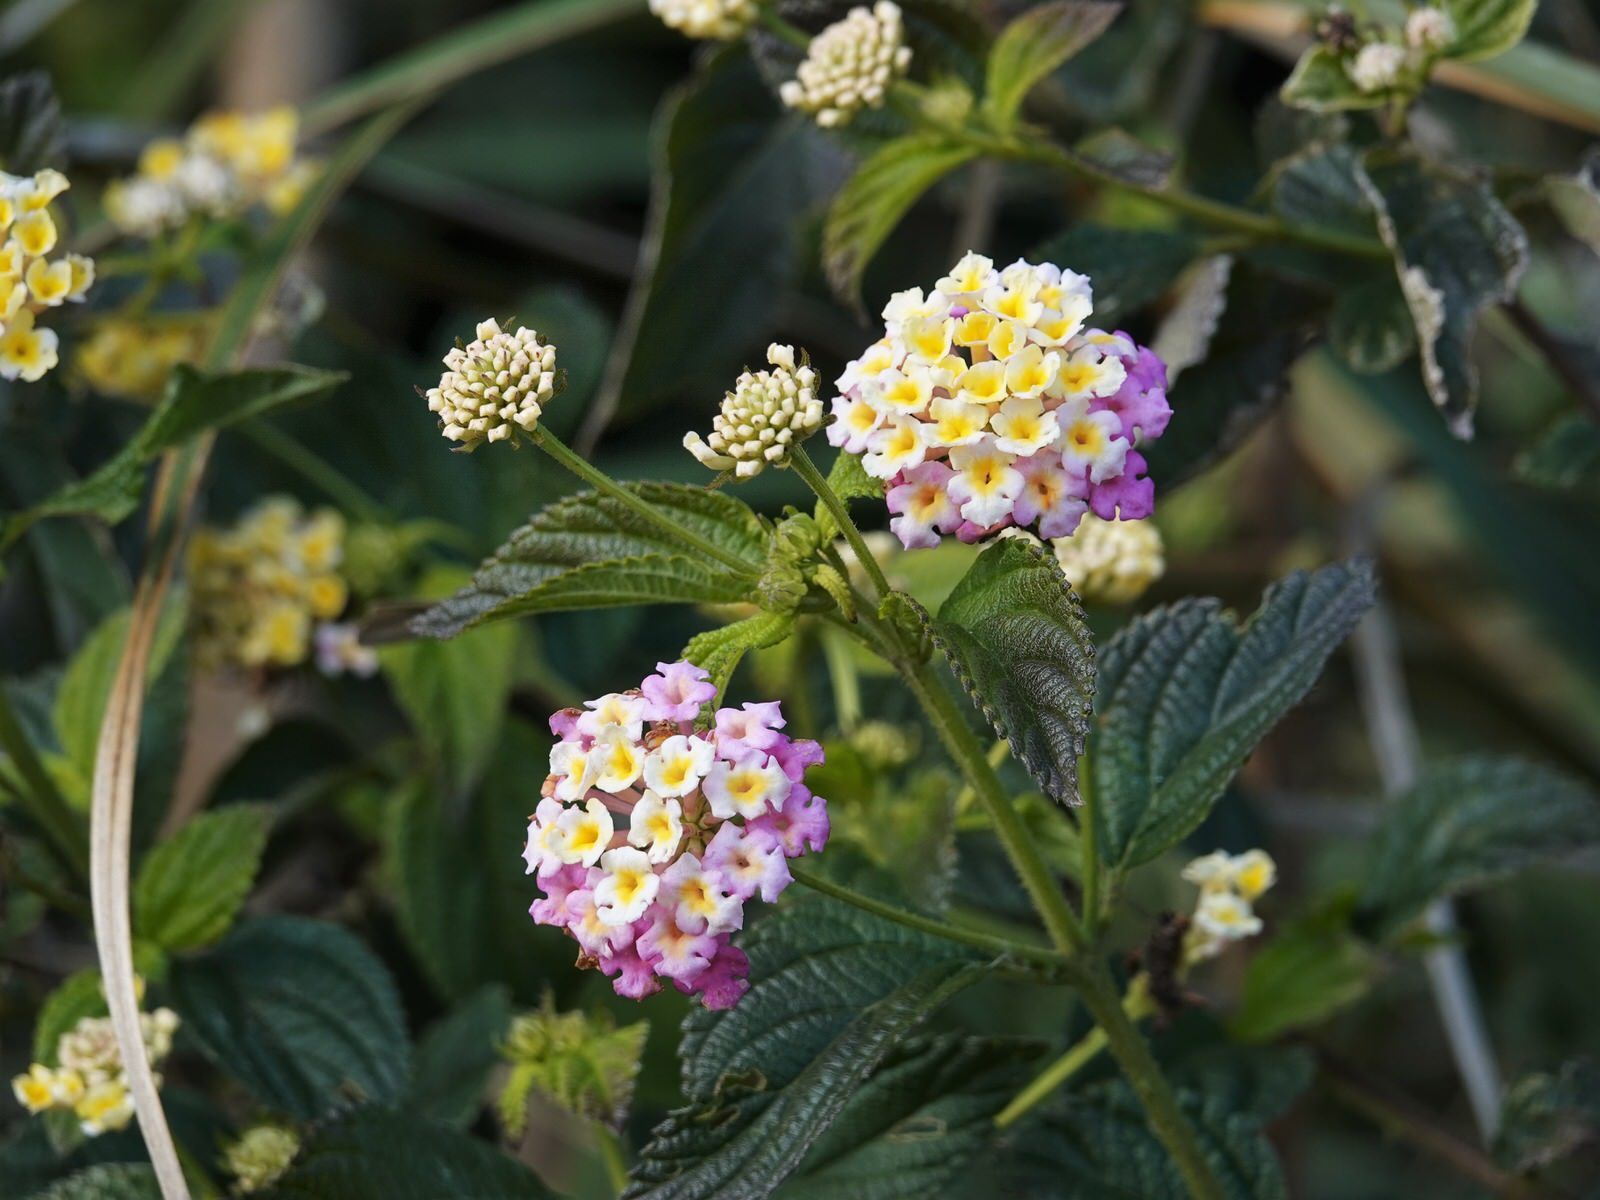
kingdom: Plantae
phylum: Tracheophyta
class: Magnoliopsida
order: Lamiales
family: Verbenaceae
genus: Lantana
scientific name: Lantana camara
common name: Lantana
